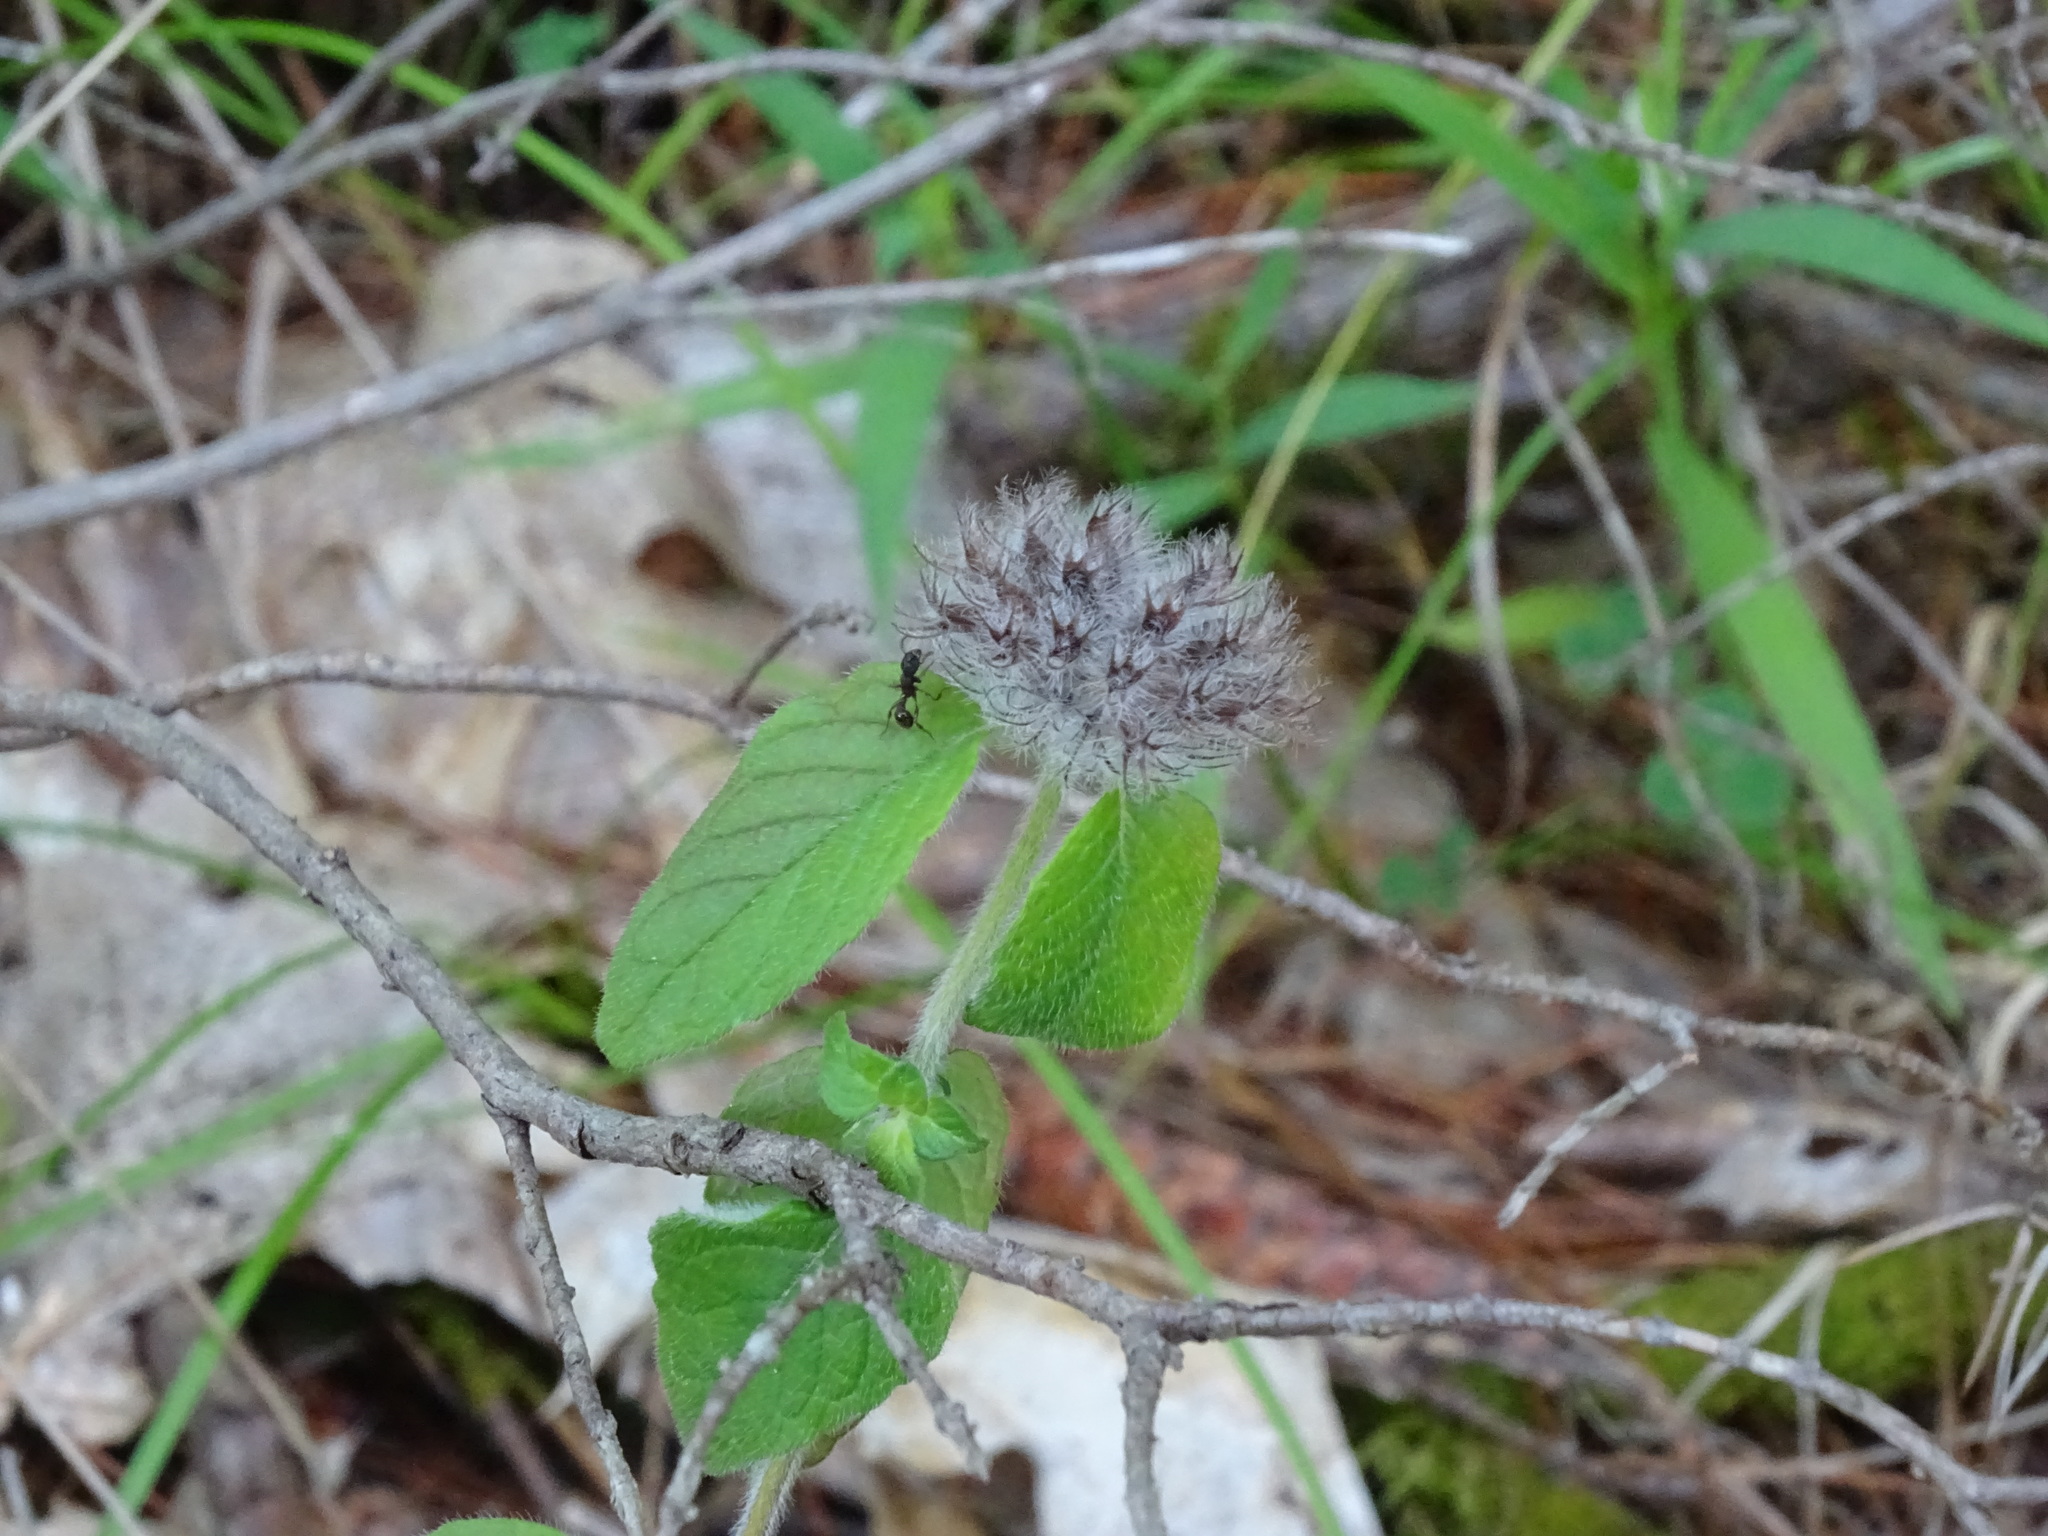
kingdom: Plantae
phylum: Tracheophyta
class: Magnoliopsida
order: Lamiales
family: Lamiaceae
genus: Clinopodium
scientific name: Clinopodium vulgare
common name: Wild basil
